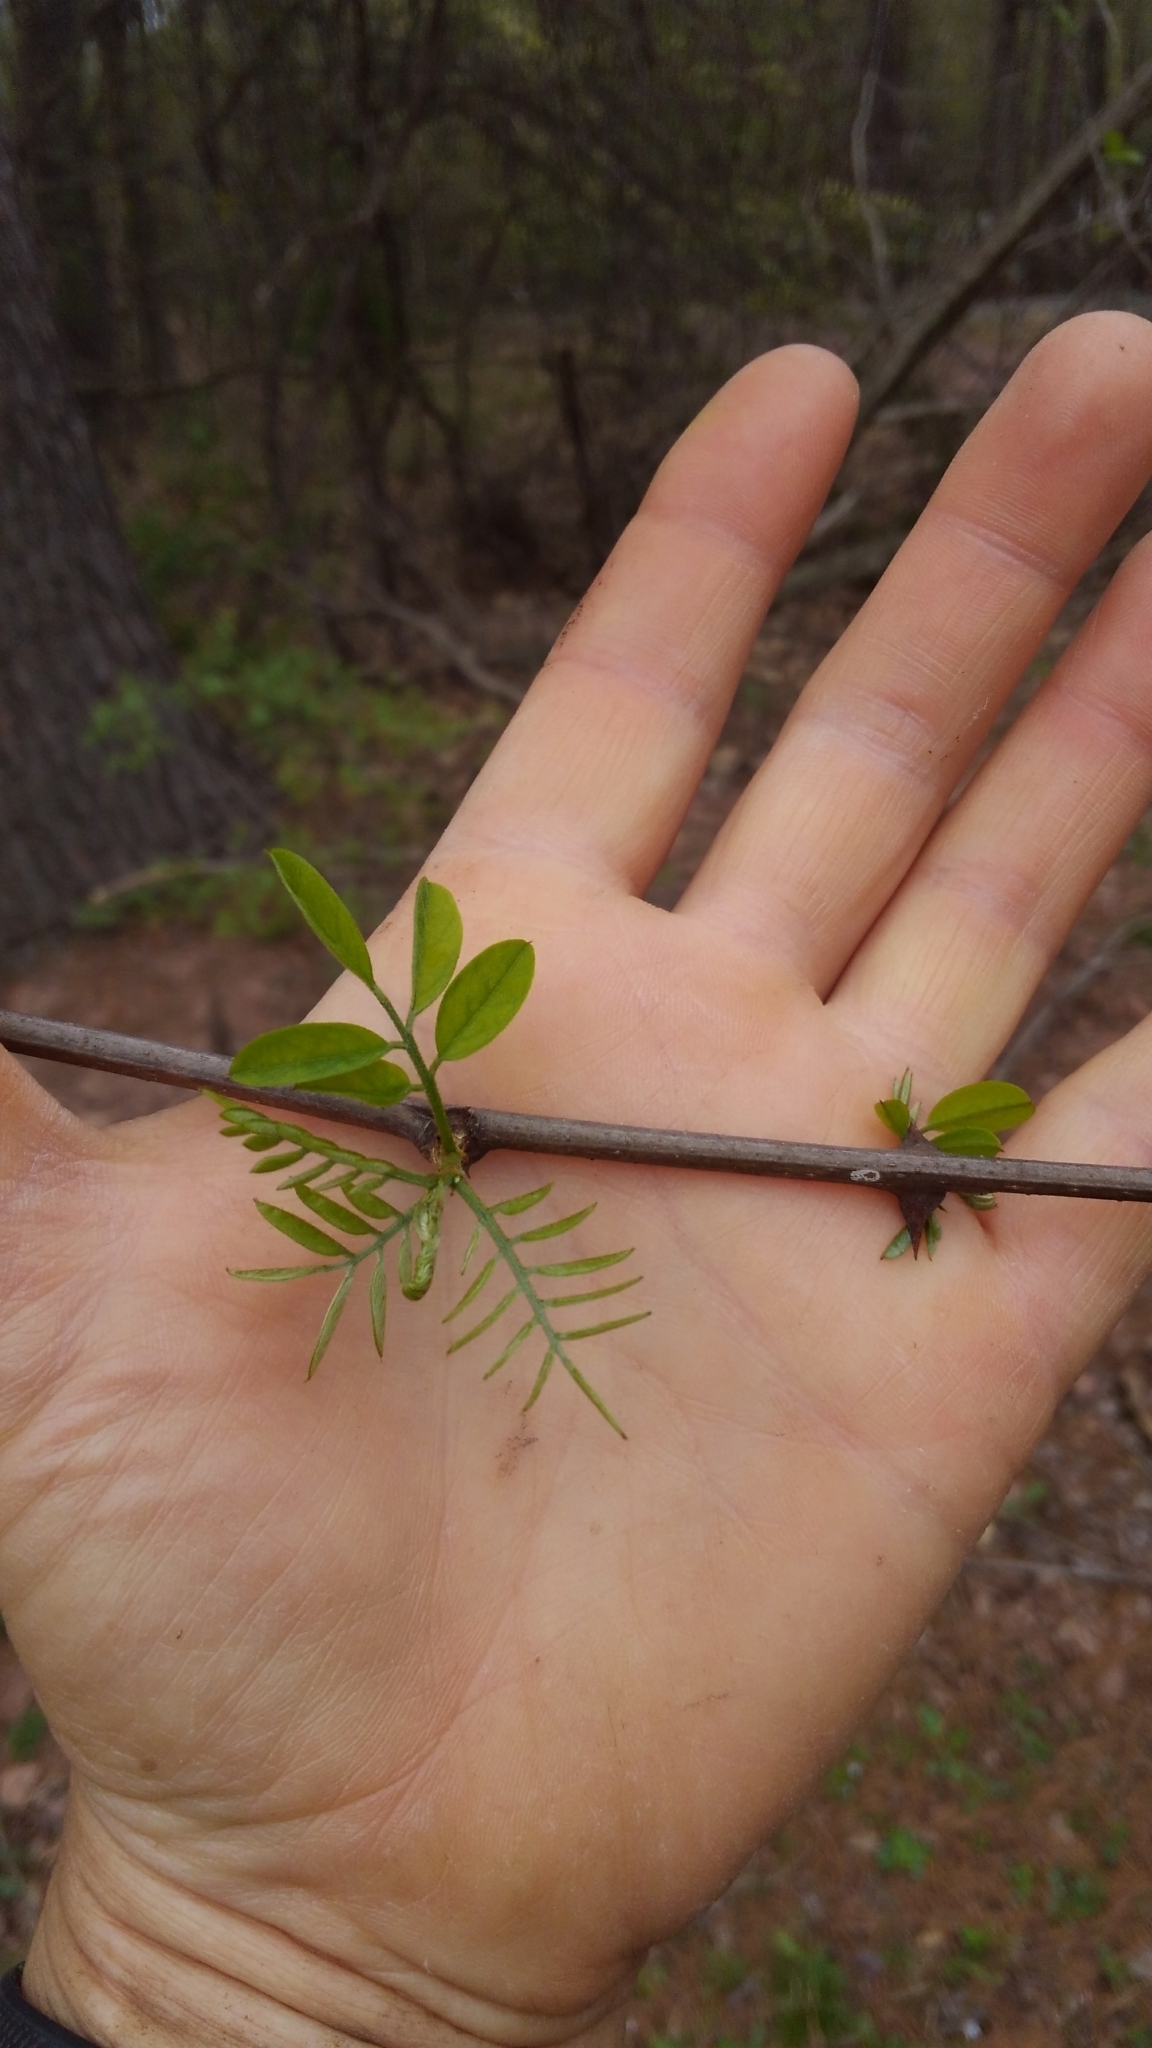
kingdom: Plantae
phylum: Tracheophyta
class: Magnoliopsida
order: Fabales
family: Fabaceae
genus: Robinia
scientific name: Robinia pseudoacacia
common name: Black locust
